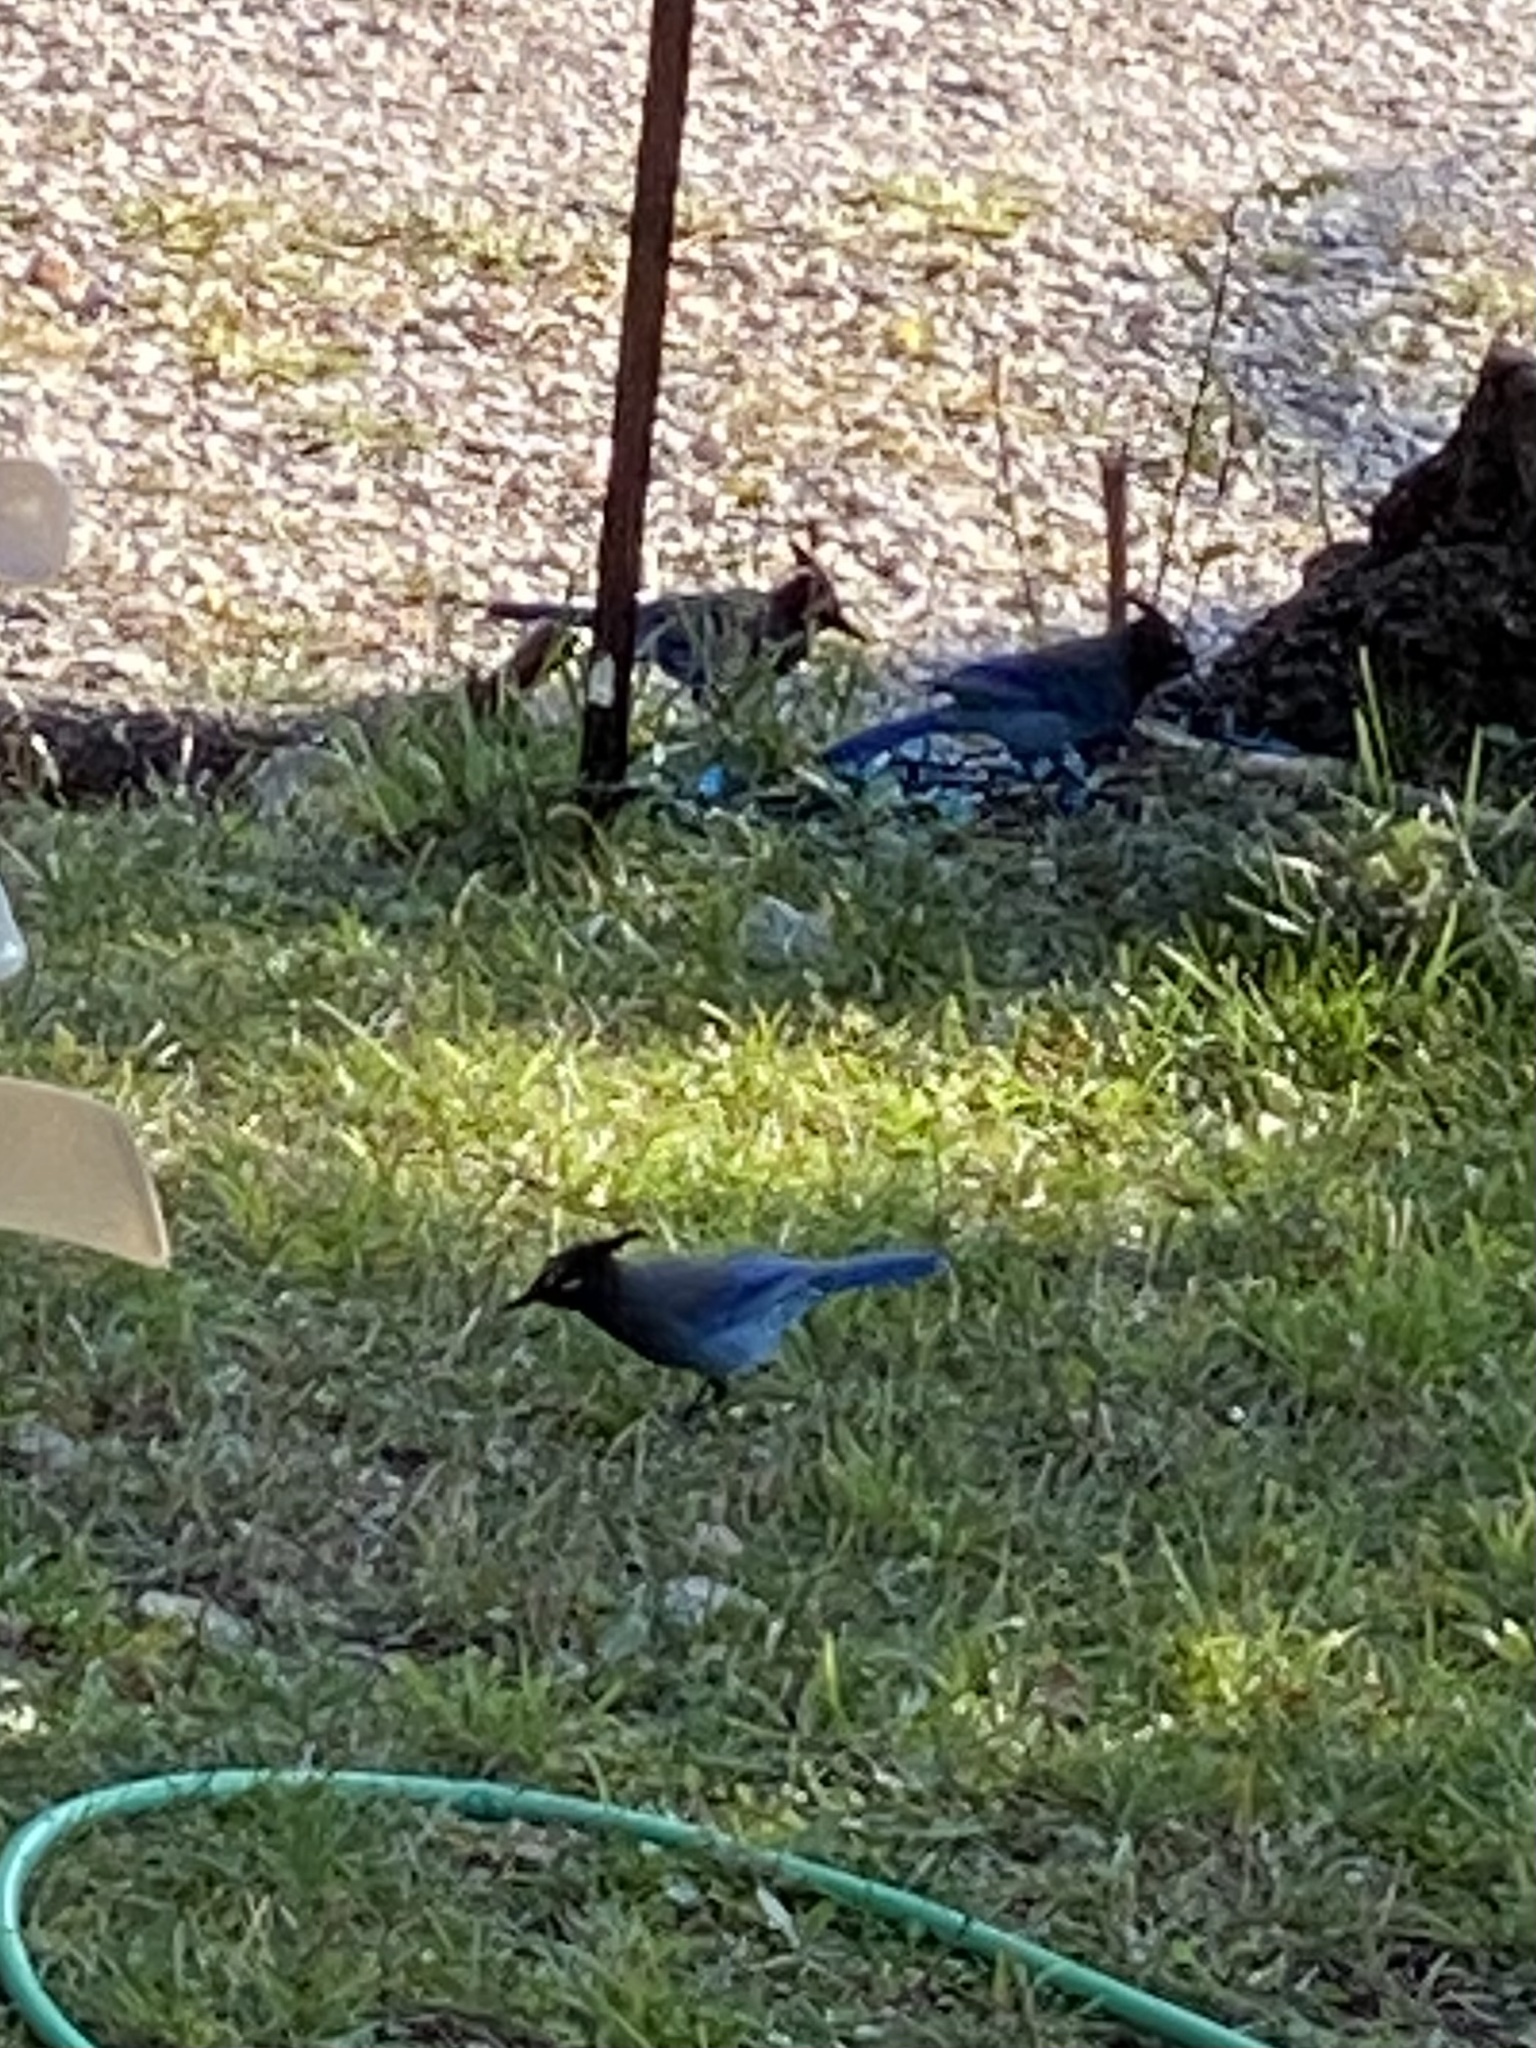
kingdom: Animalia
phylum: Chordata
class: Aves
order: Passeriformes
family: Corvidae
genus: Cyanocitta
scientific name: Cyanocitta stelleri
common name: Steller's jay
